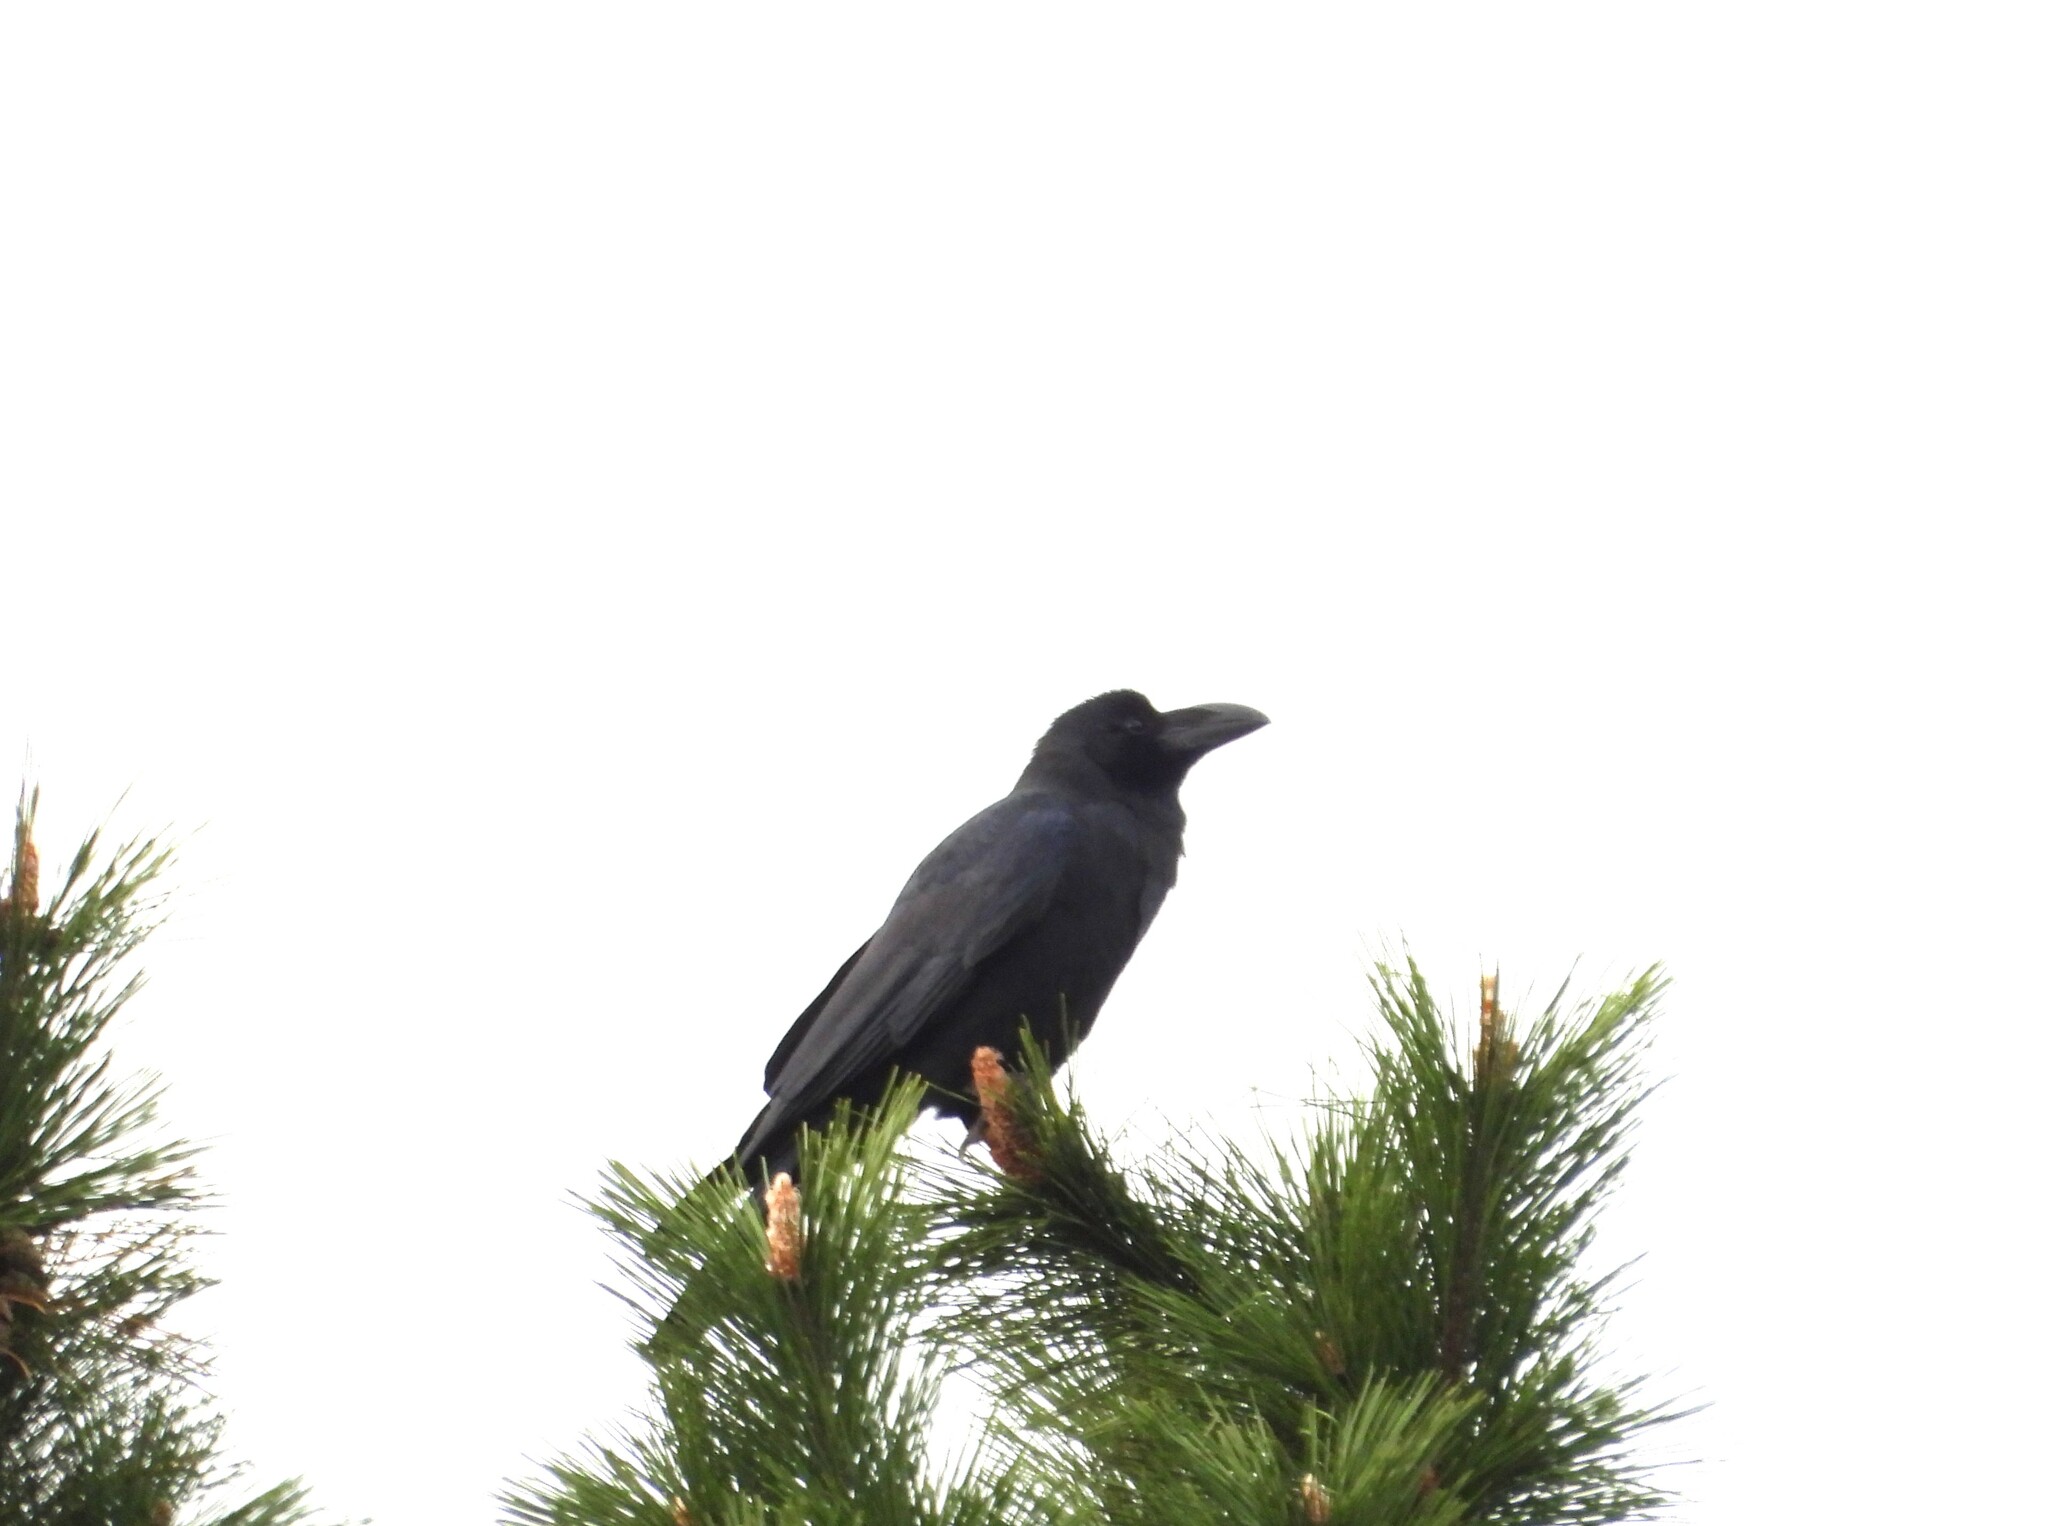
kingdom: Animalia
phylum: Chordata
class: Aves
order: Passeriformes
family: Corvidae
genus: Corvus
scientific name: Corvus macrorhynchos
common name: Large-billed crow
